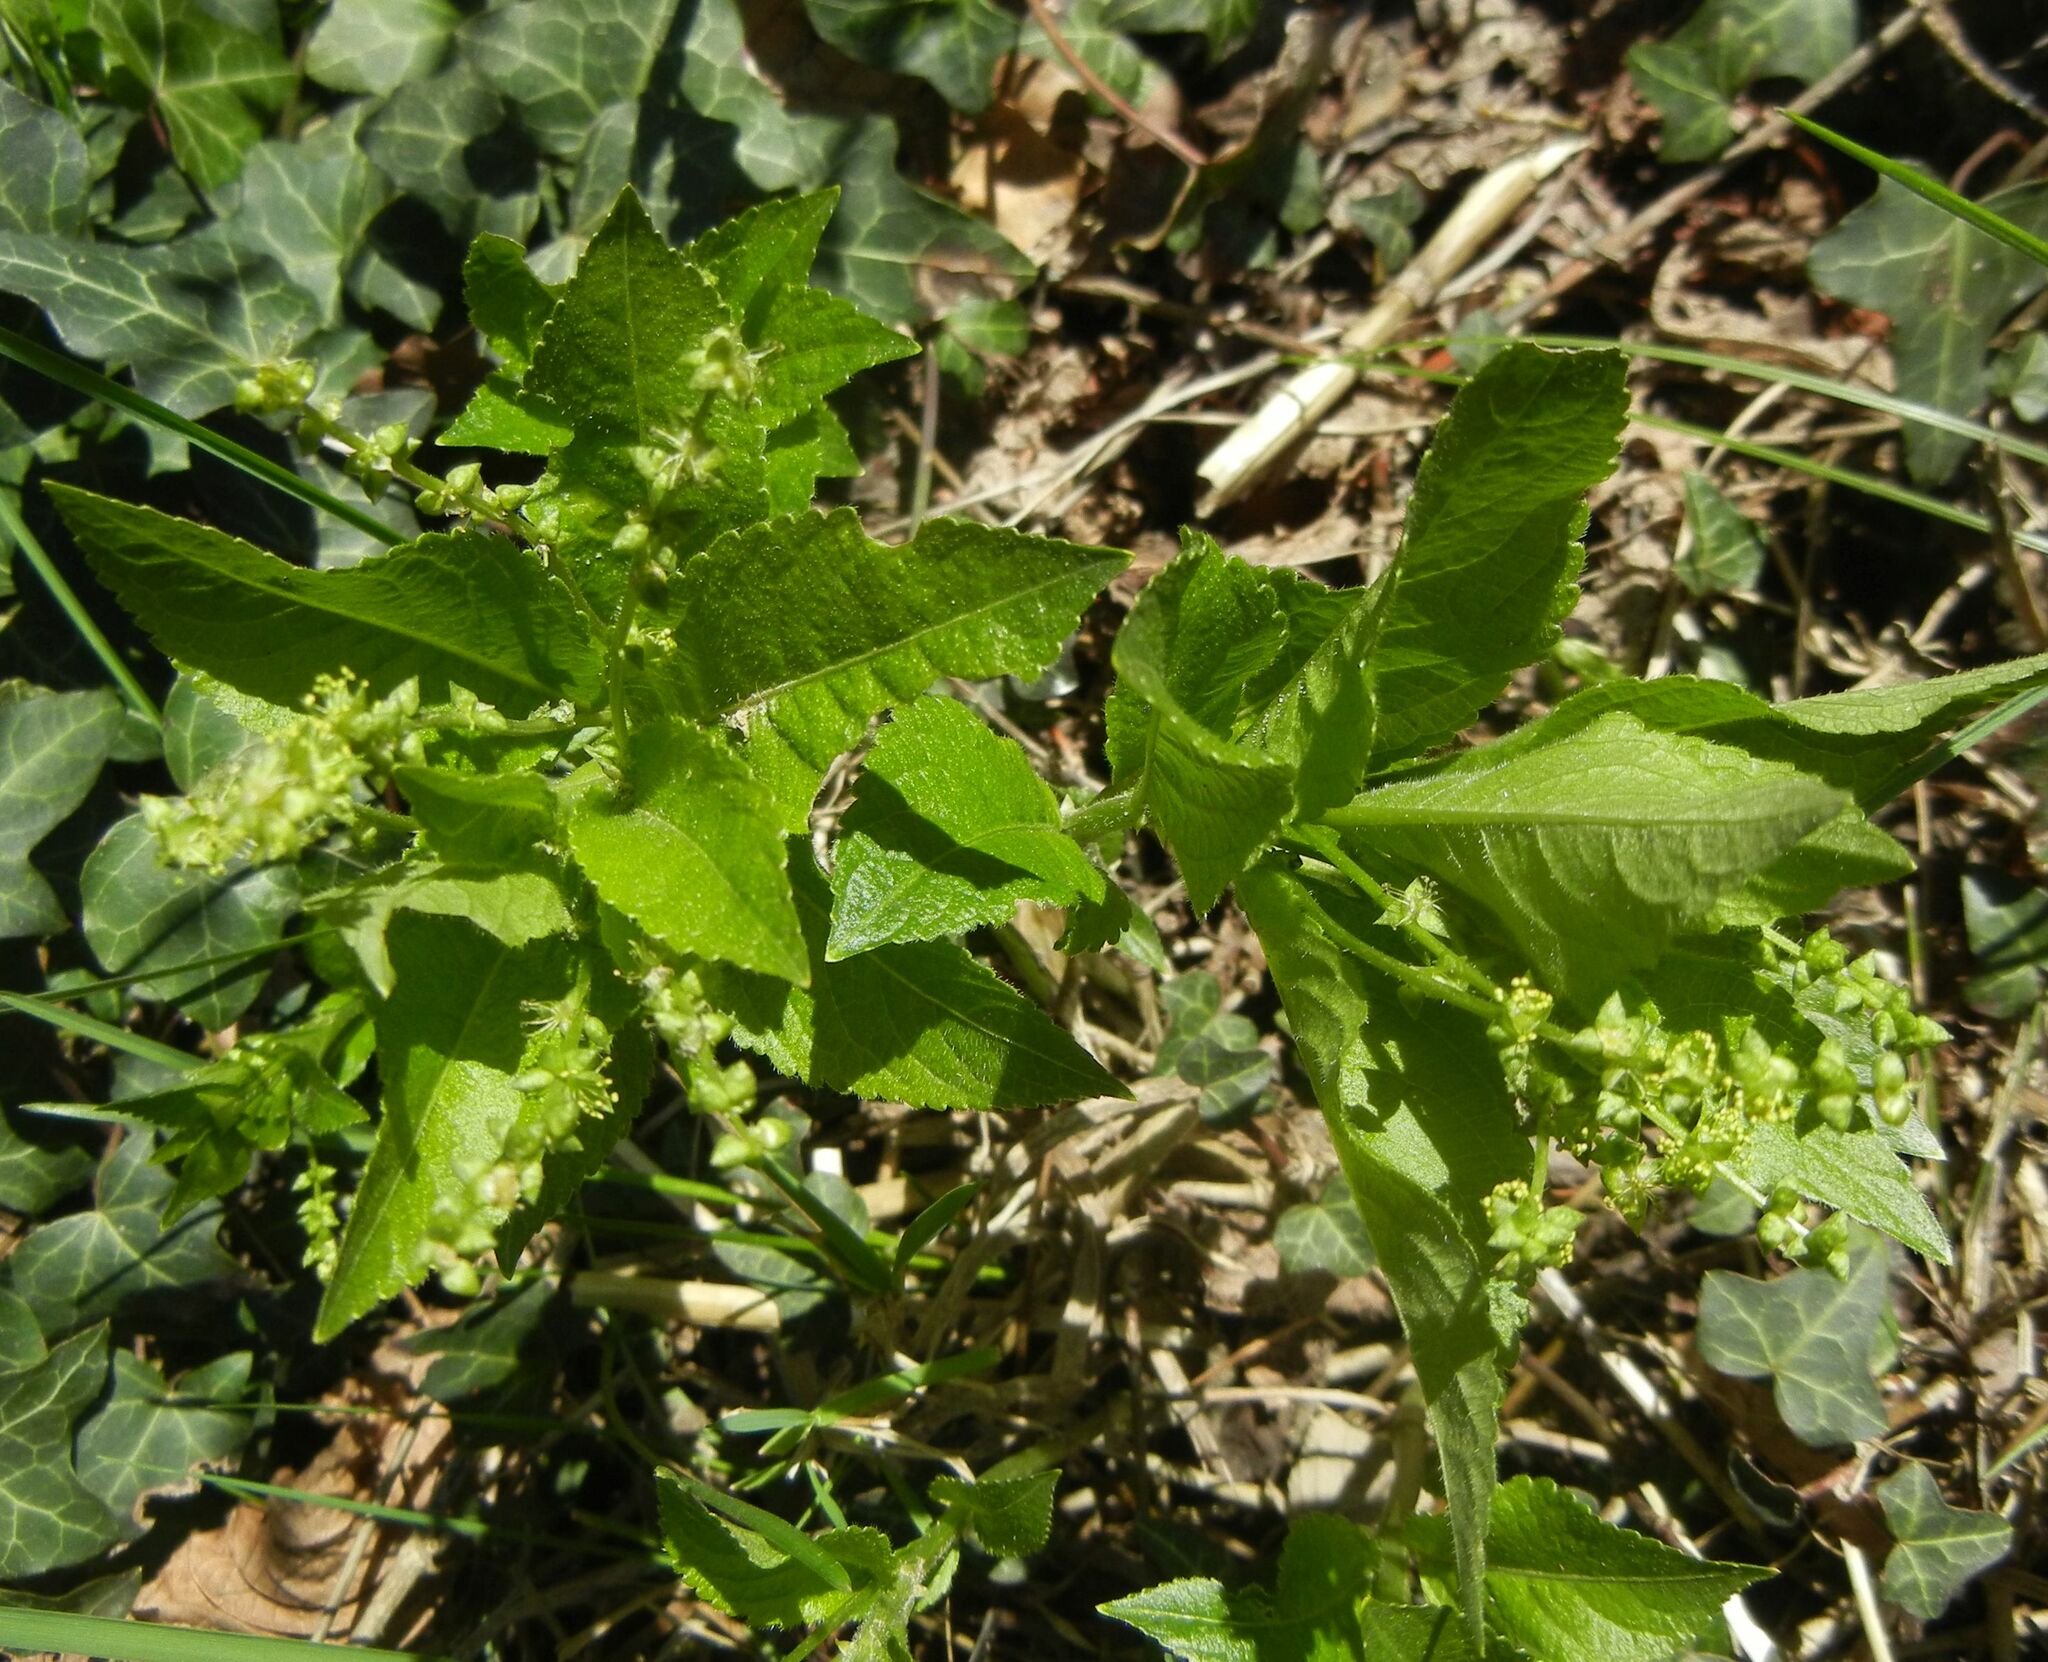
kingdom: Plantae
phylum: Tracheophyta
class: Magnoliopsida
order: Malpighiales
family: Euphorbiaceae
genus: Mercurialis
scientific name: Mercurialis perennis
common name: Dog mercury
